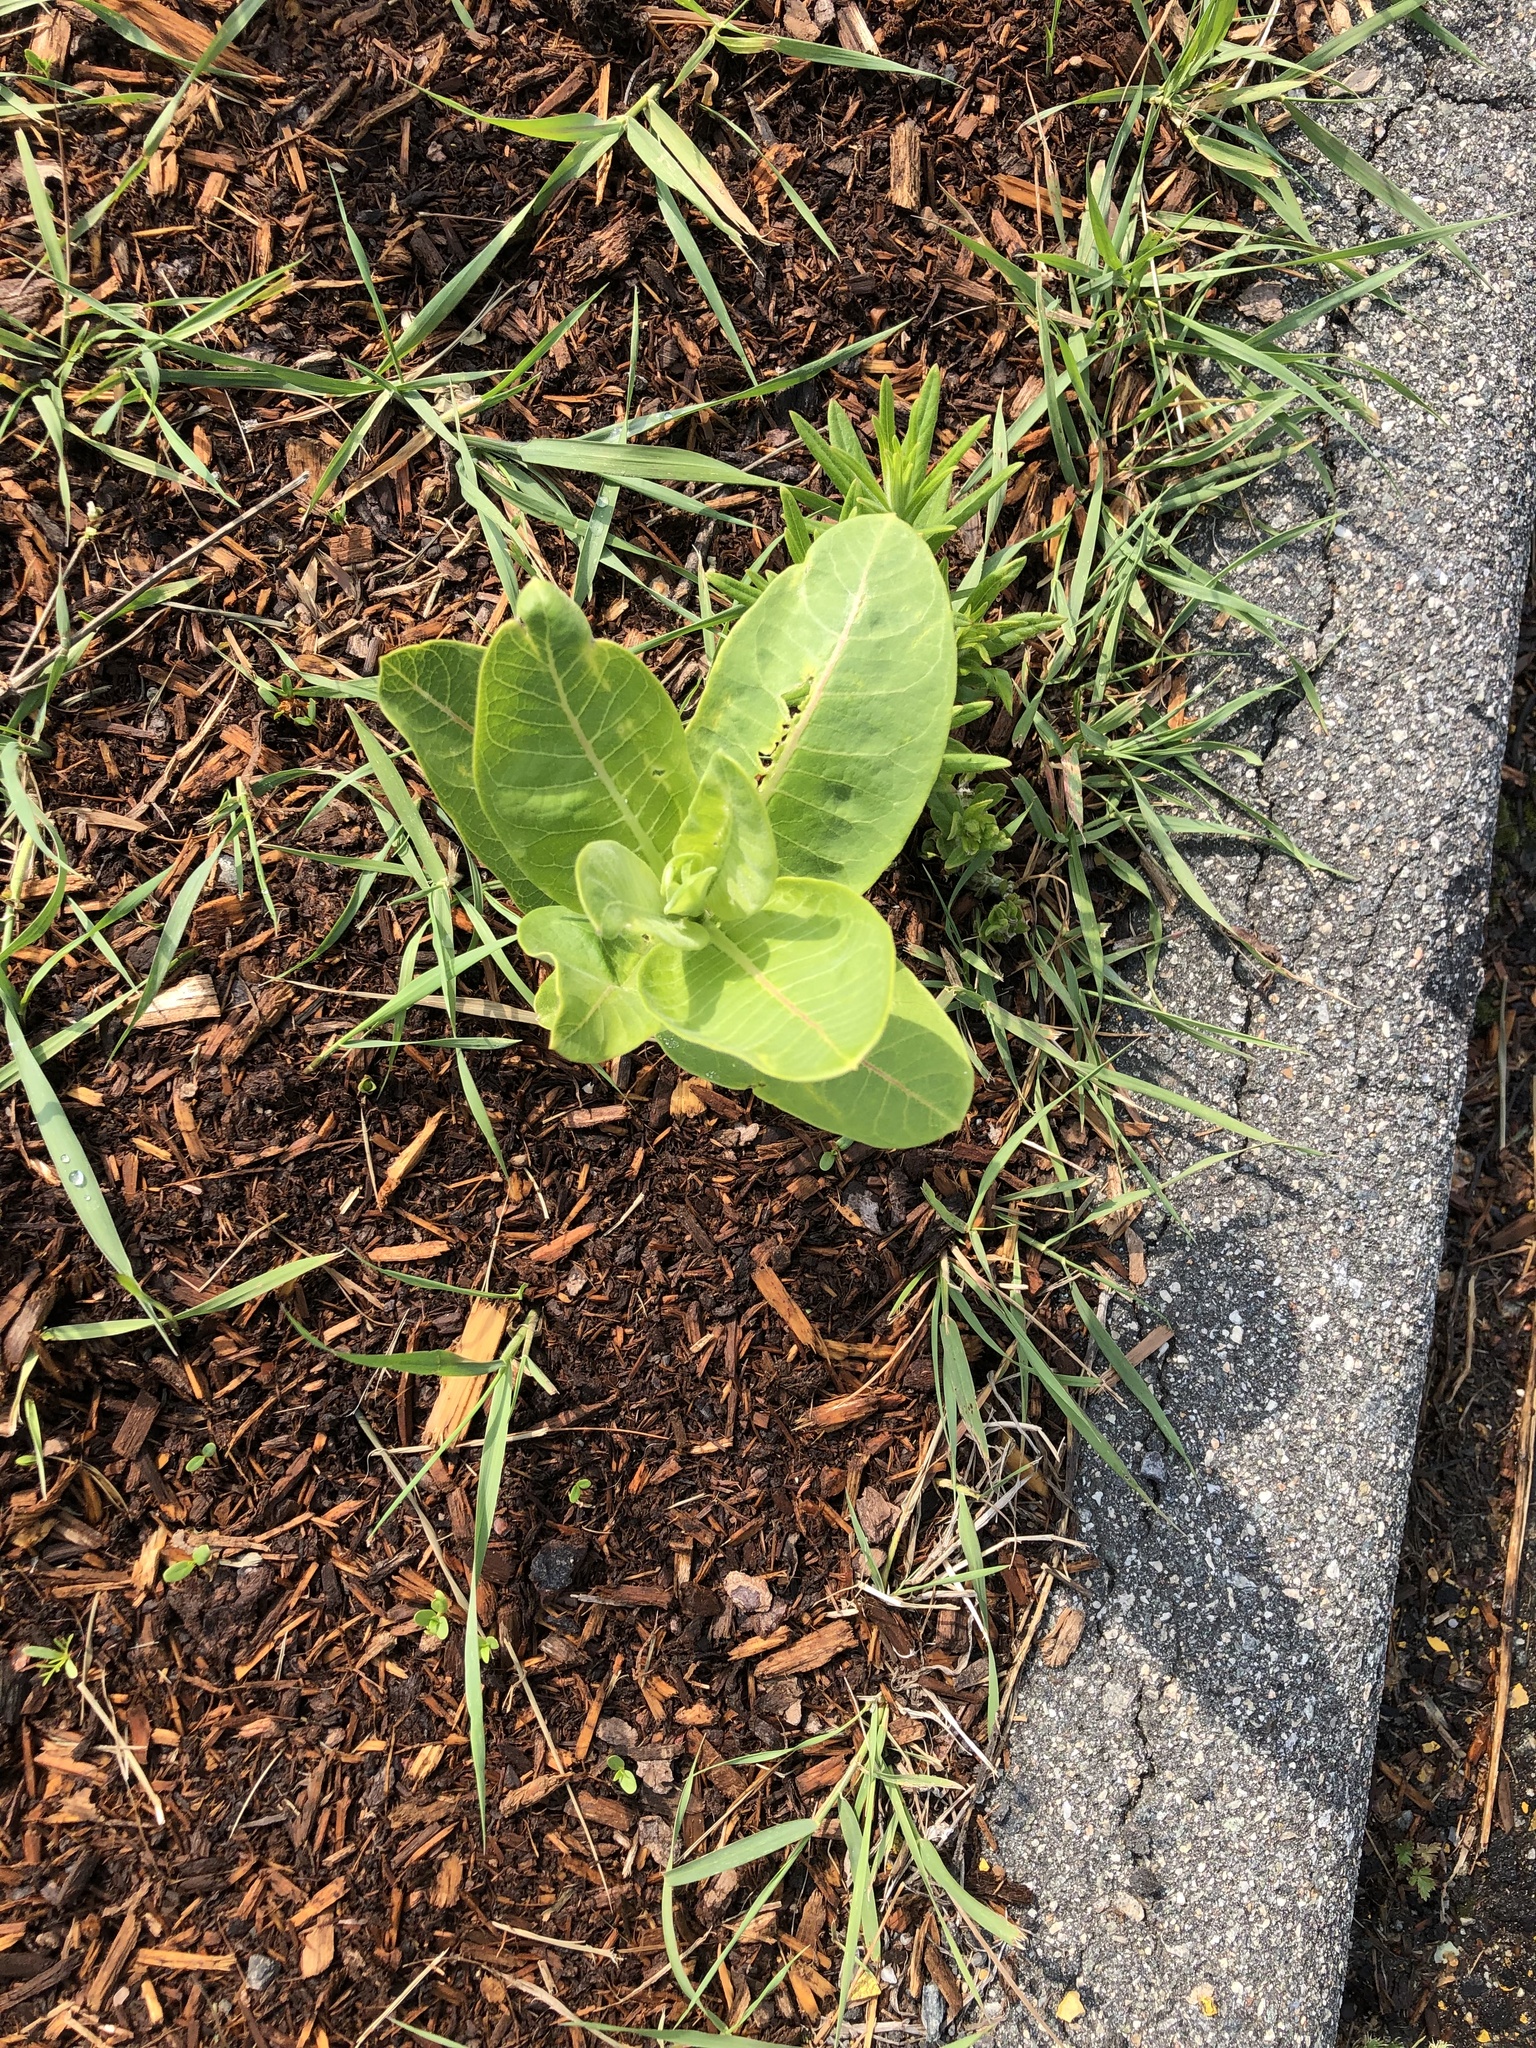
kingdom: Plantae
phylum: Tracheophyta
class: Magnoliopsida
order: Gentianales
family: Apocynaceae
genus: Asclepias
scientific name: Asclepias syriaca
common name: Common milkweed
